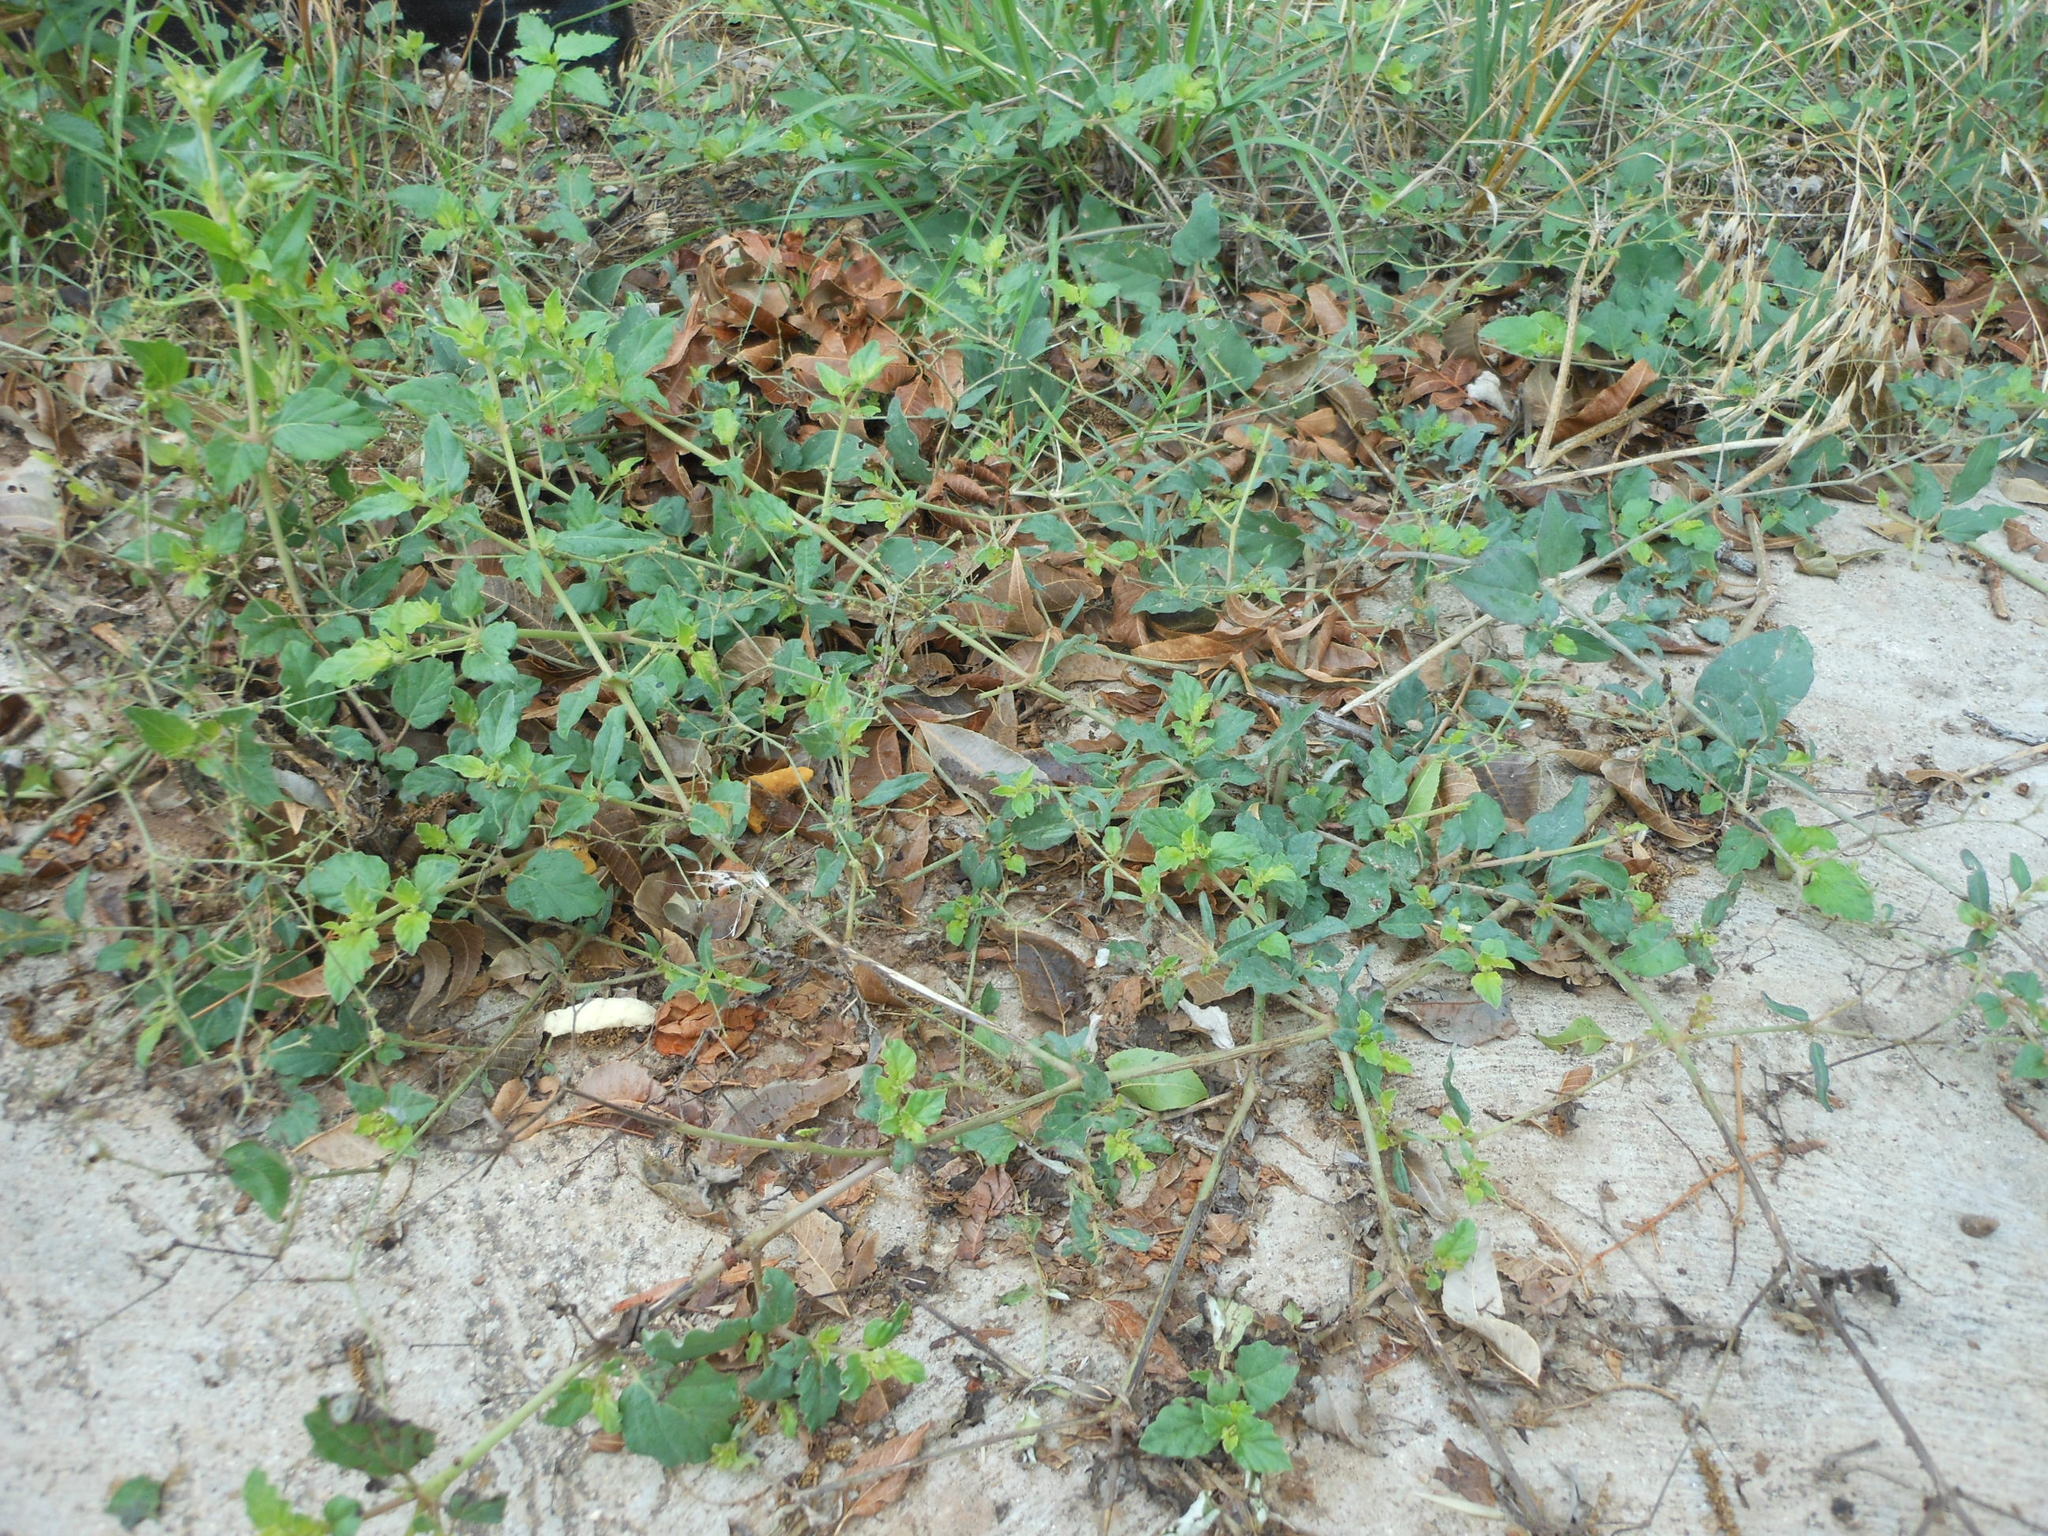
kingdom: Plantae
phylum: Tracheophyta
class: Magnoliopsida
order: Caryophyllales
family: Nyctaginaceae
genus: Boerhavia
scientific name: Boerhavia coccinea
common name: Scarlet spiderling
